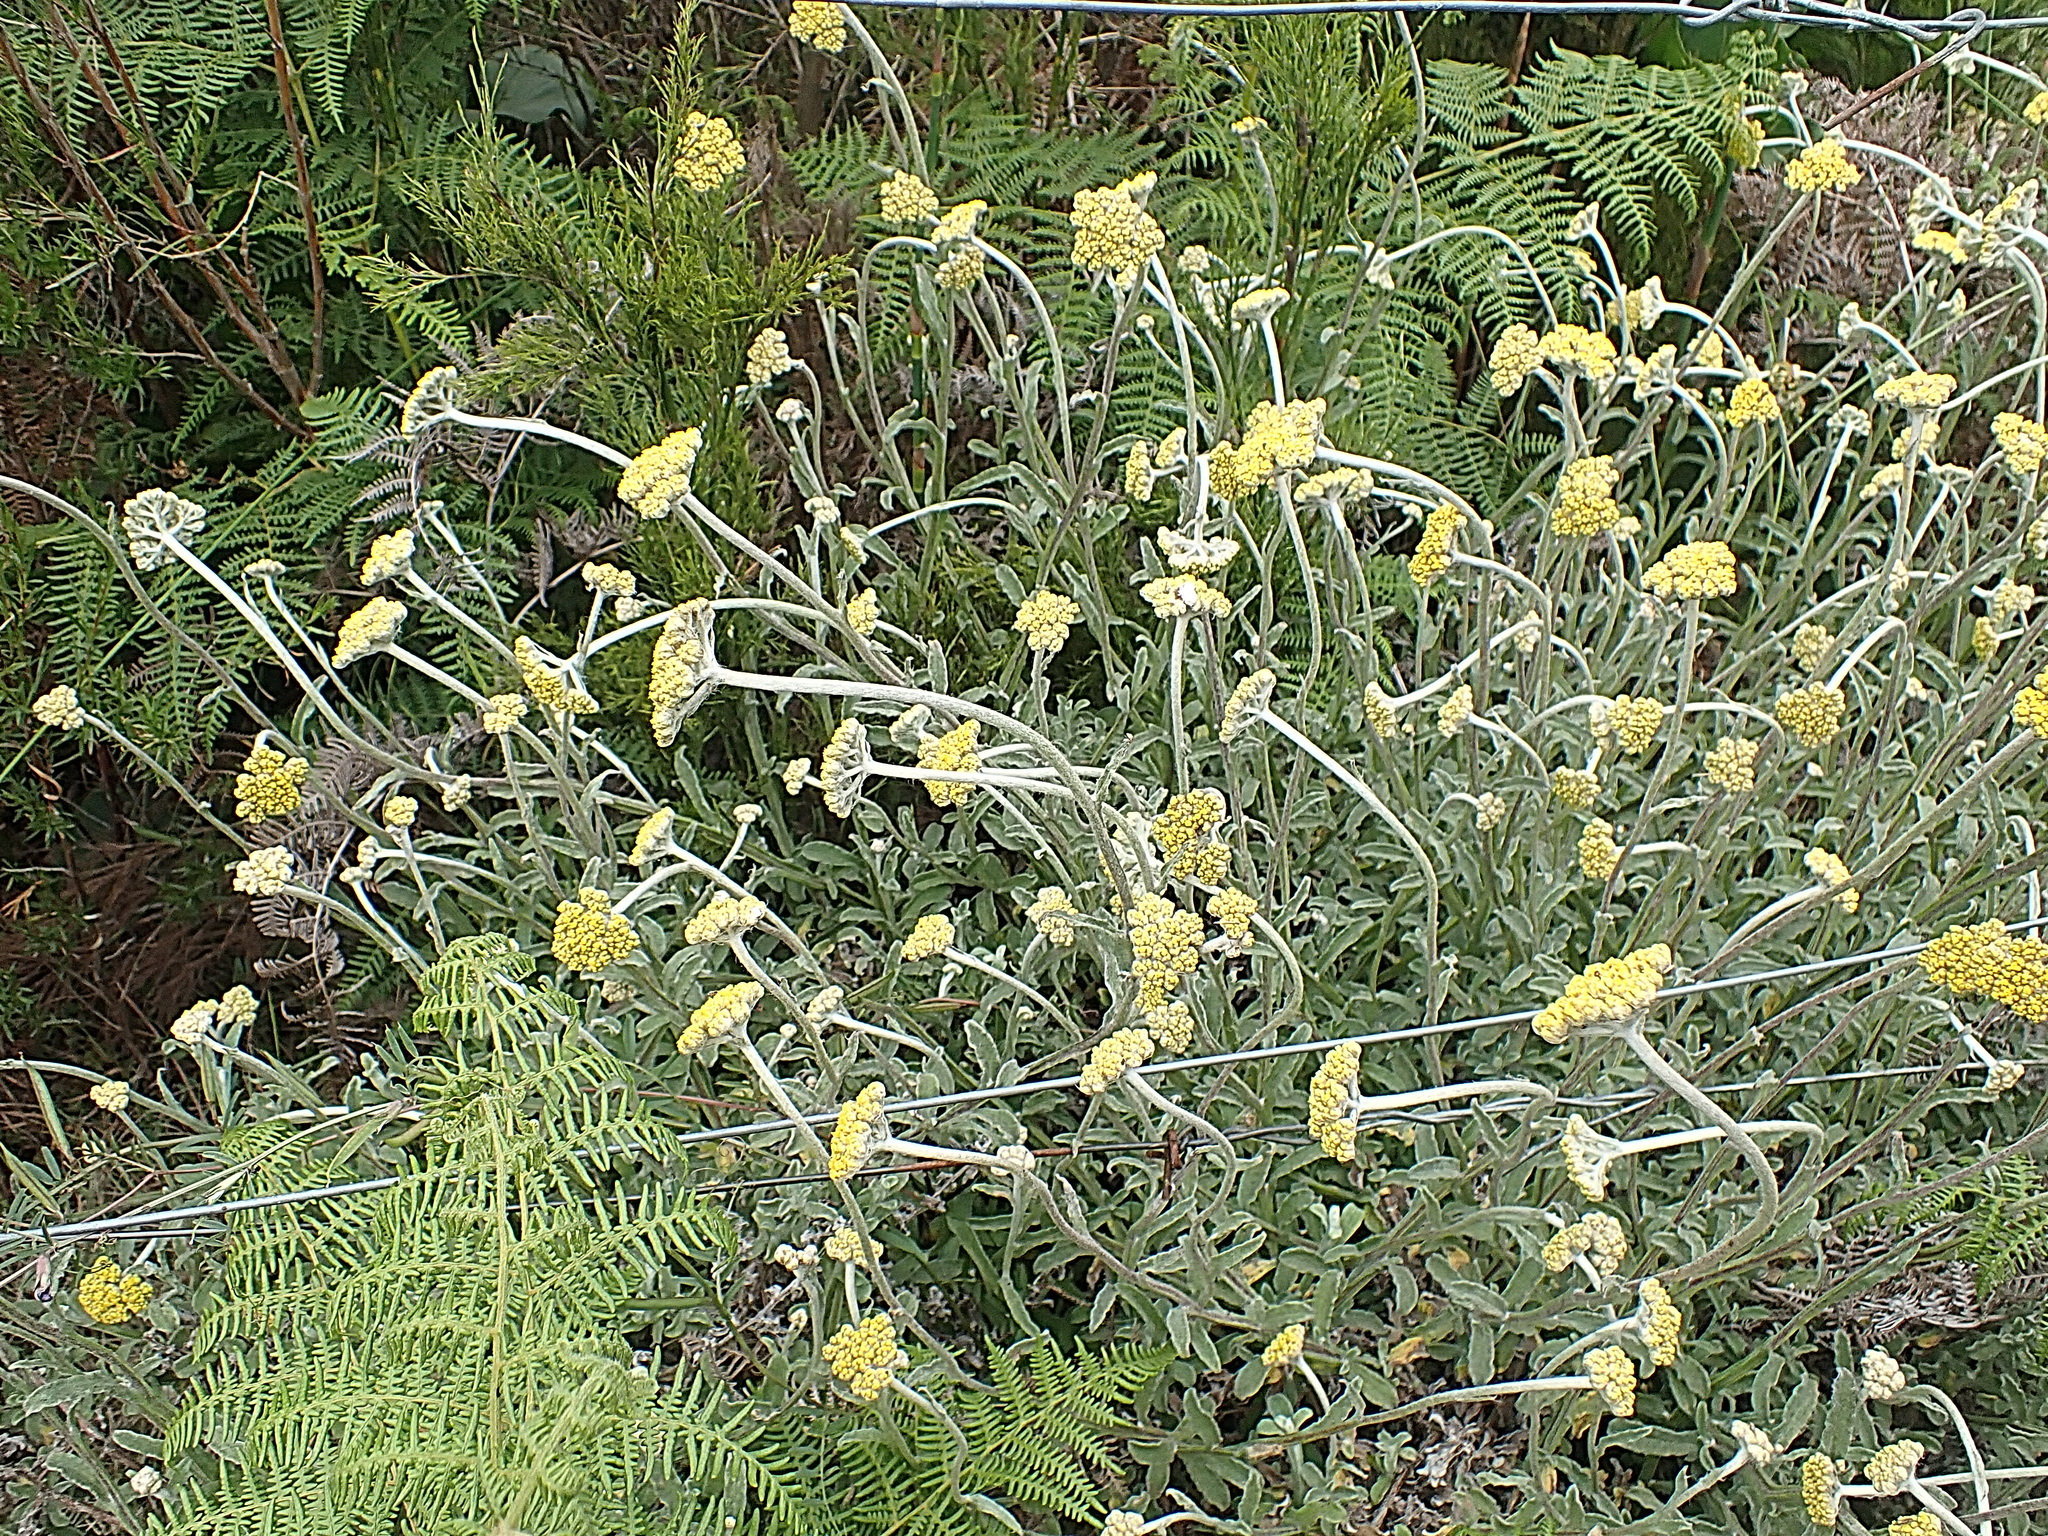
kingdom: Plantae
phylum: Tracheophyta
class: Magnoliopsida
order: Asterales
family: Asteraceae
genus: Helichrysum
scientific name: Helichrysum odoratissimum
